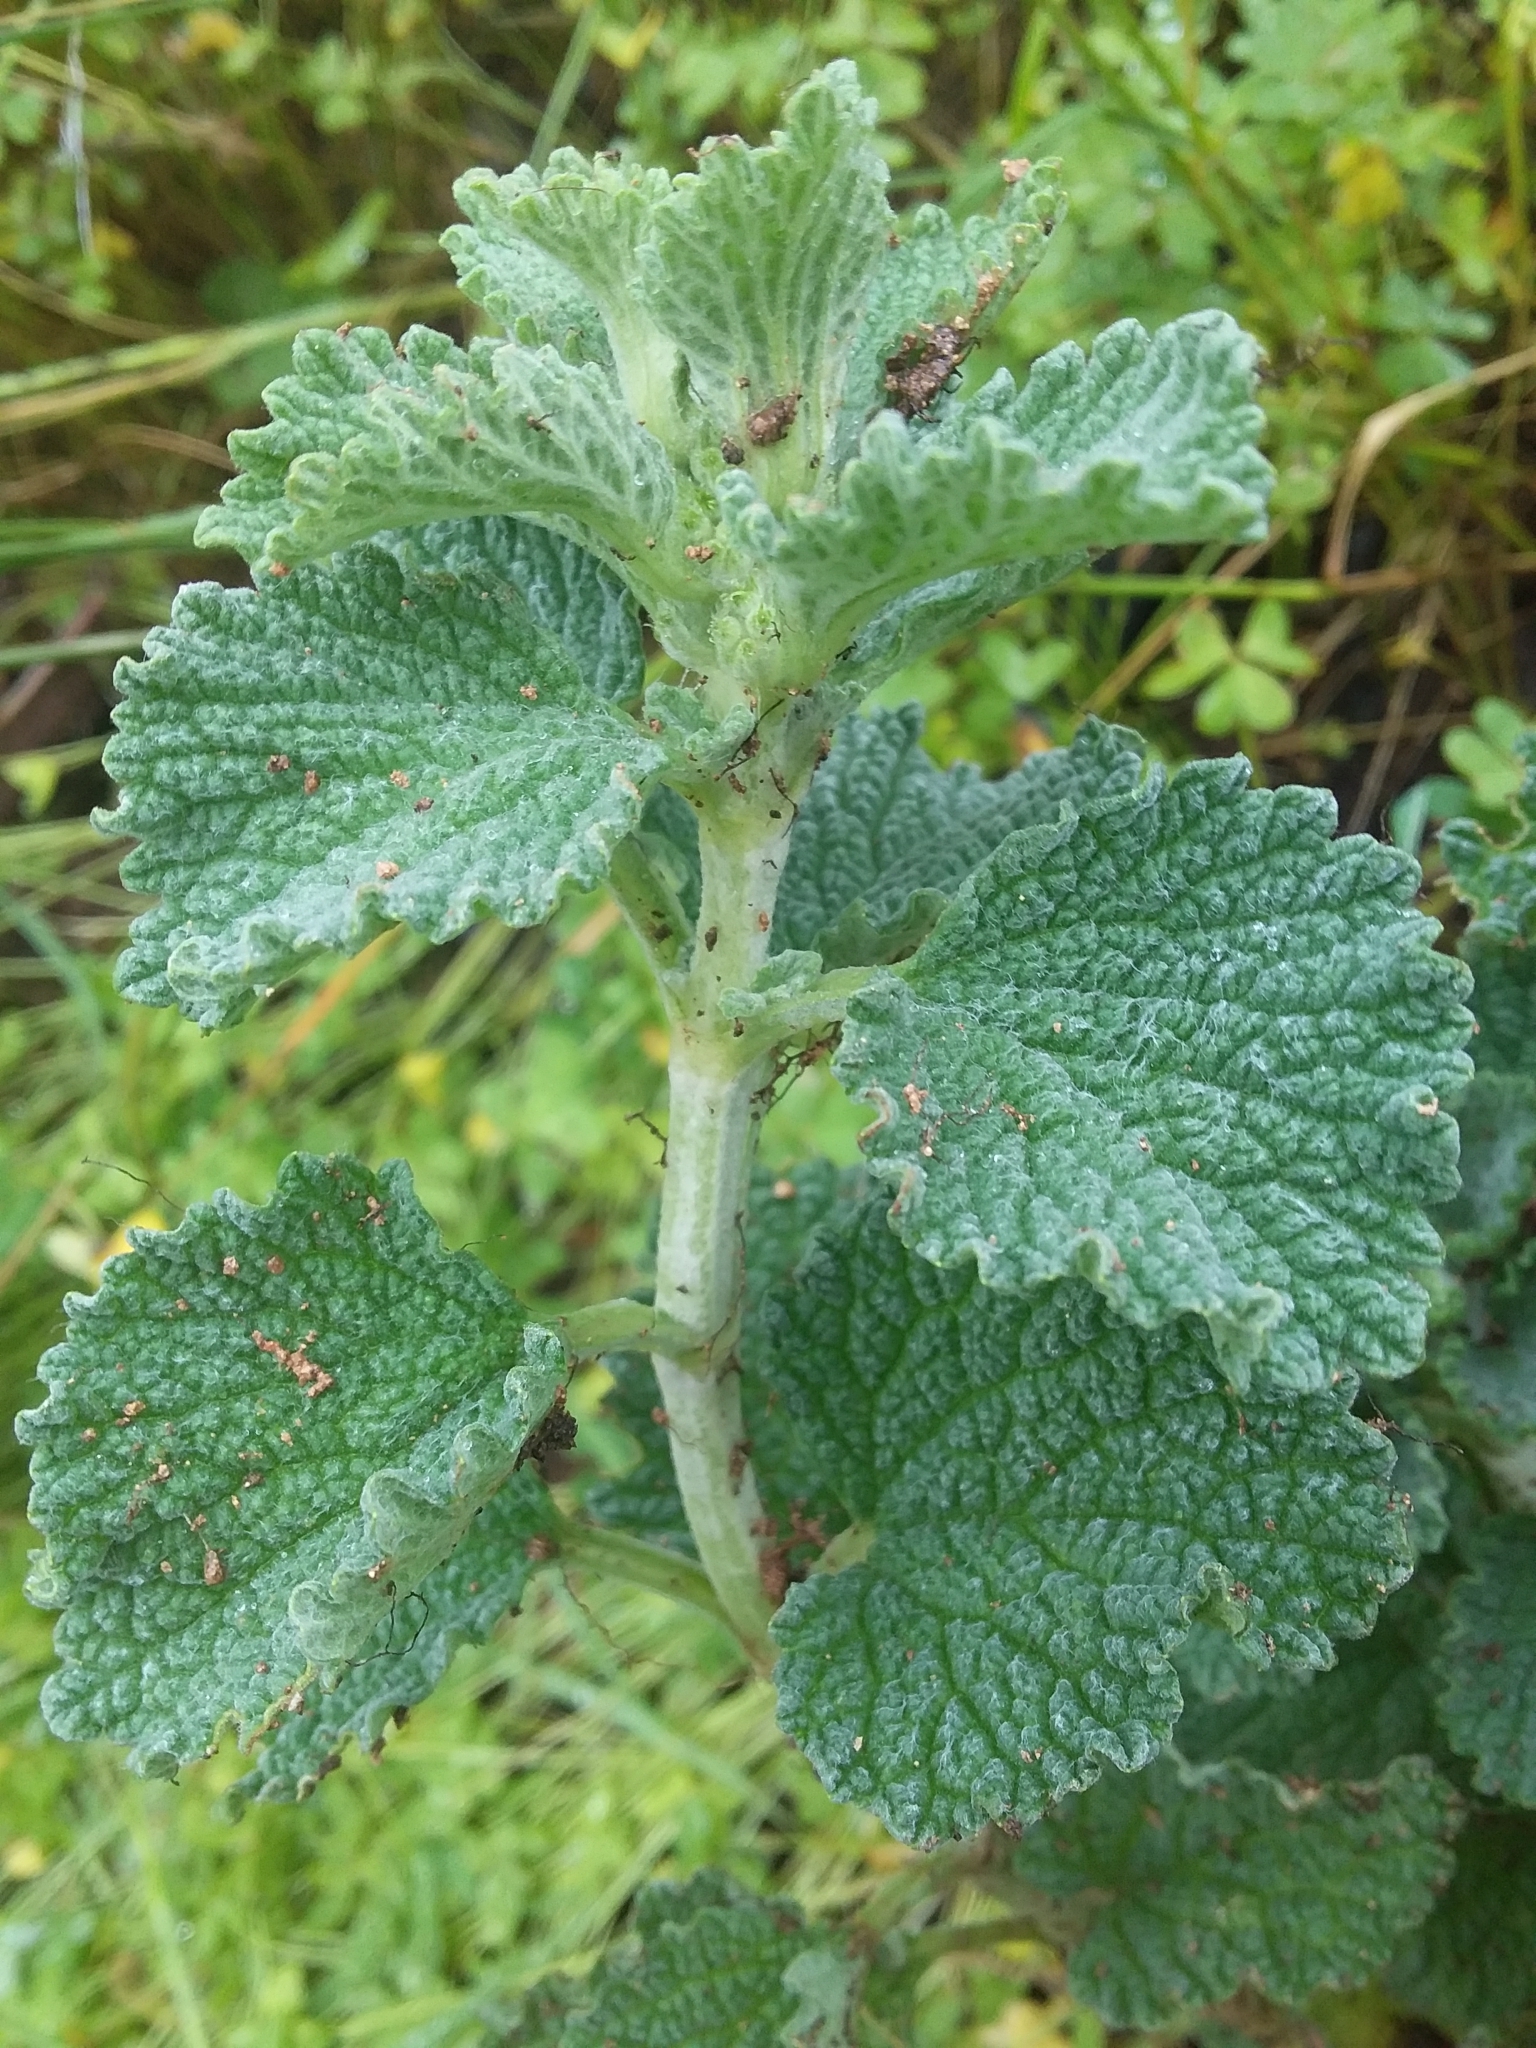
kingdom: Plantae
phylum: Tracheophyta
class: Magnoliopsida
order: Lamiales
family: Lamiaceae
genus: Marrubium
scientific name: Marrubium vulgare
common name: Horehound
